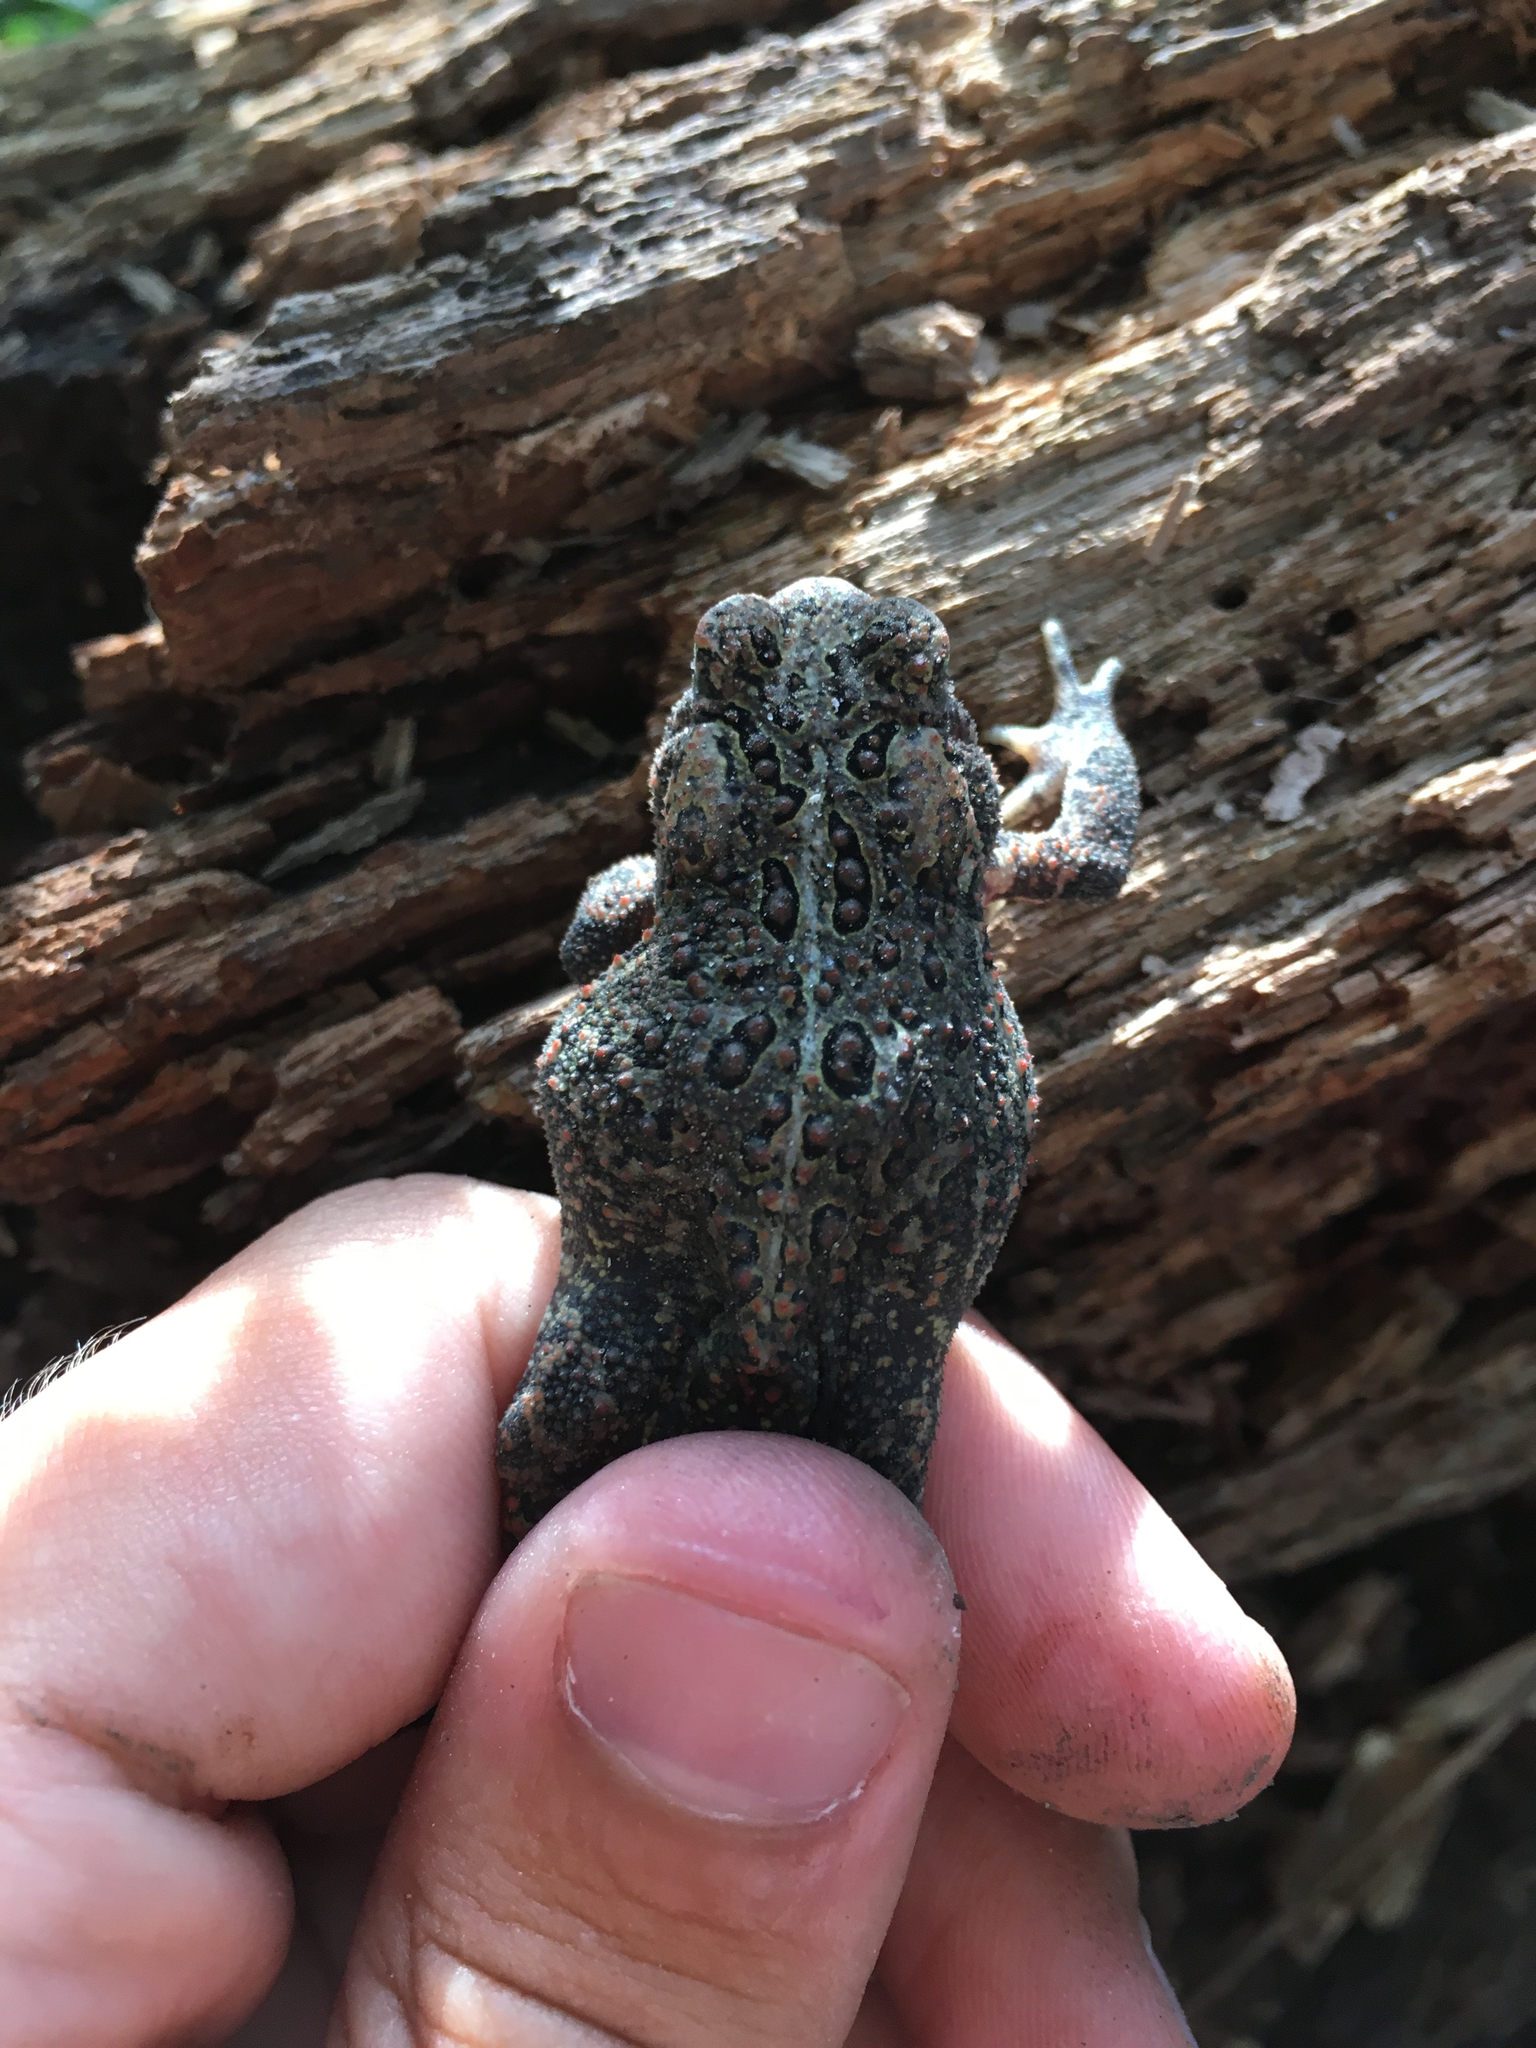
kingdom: Animalia
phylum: Chordata
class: Amphibia
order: Anura
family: Bufonidae
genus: Anaxyrus
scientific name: Anaxyrus americanus
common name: American toad
